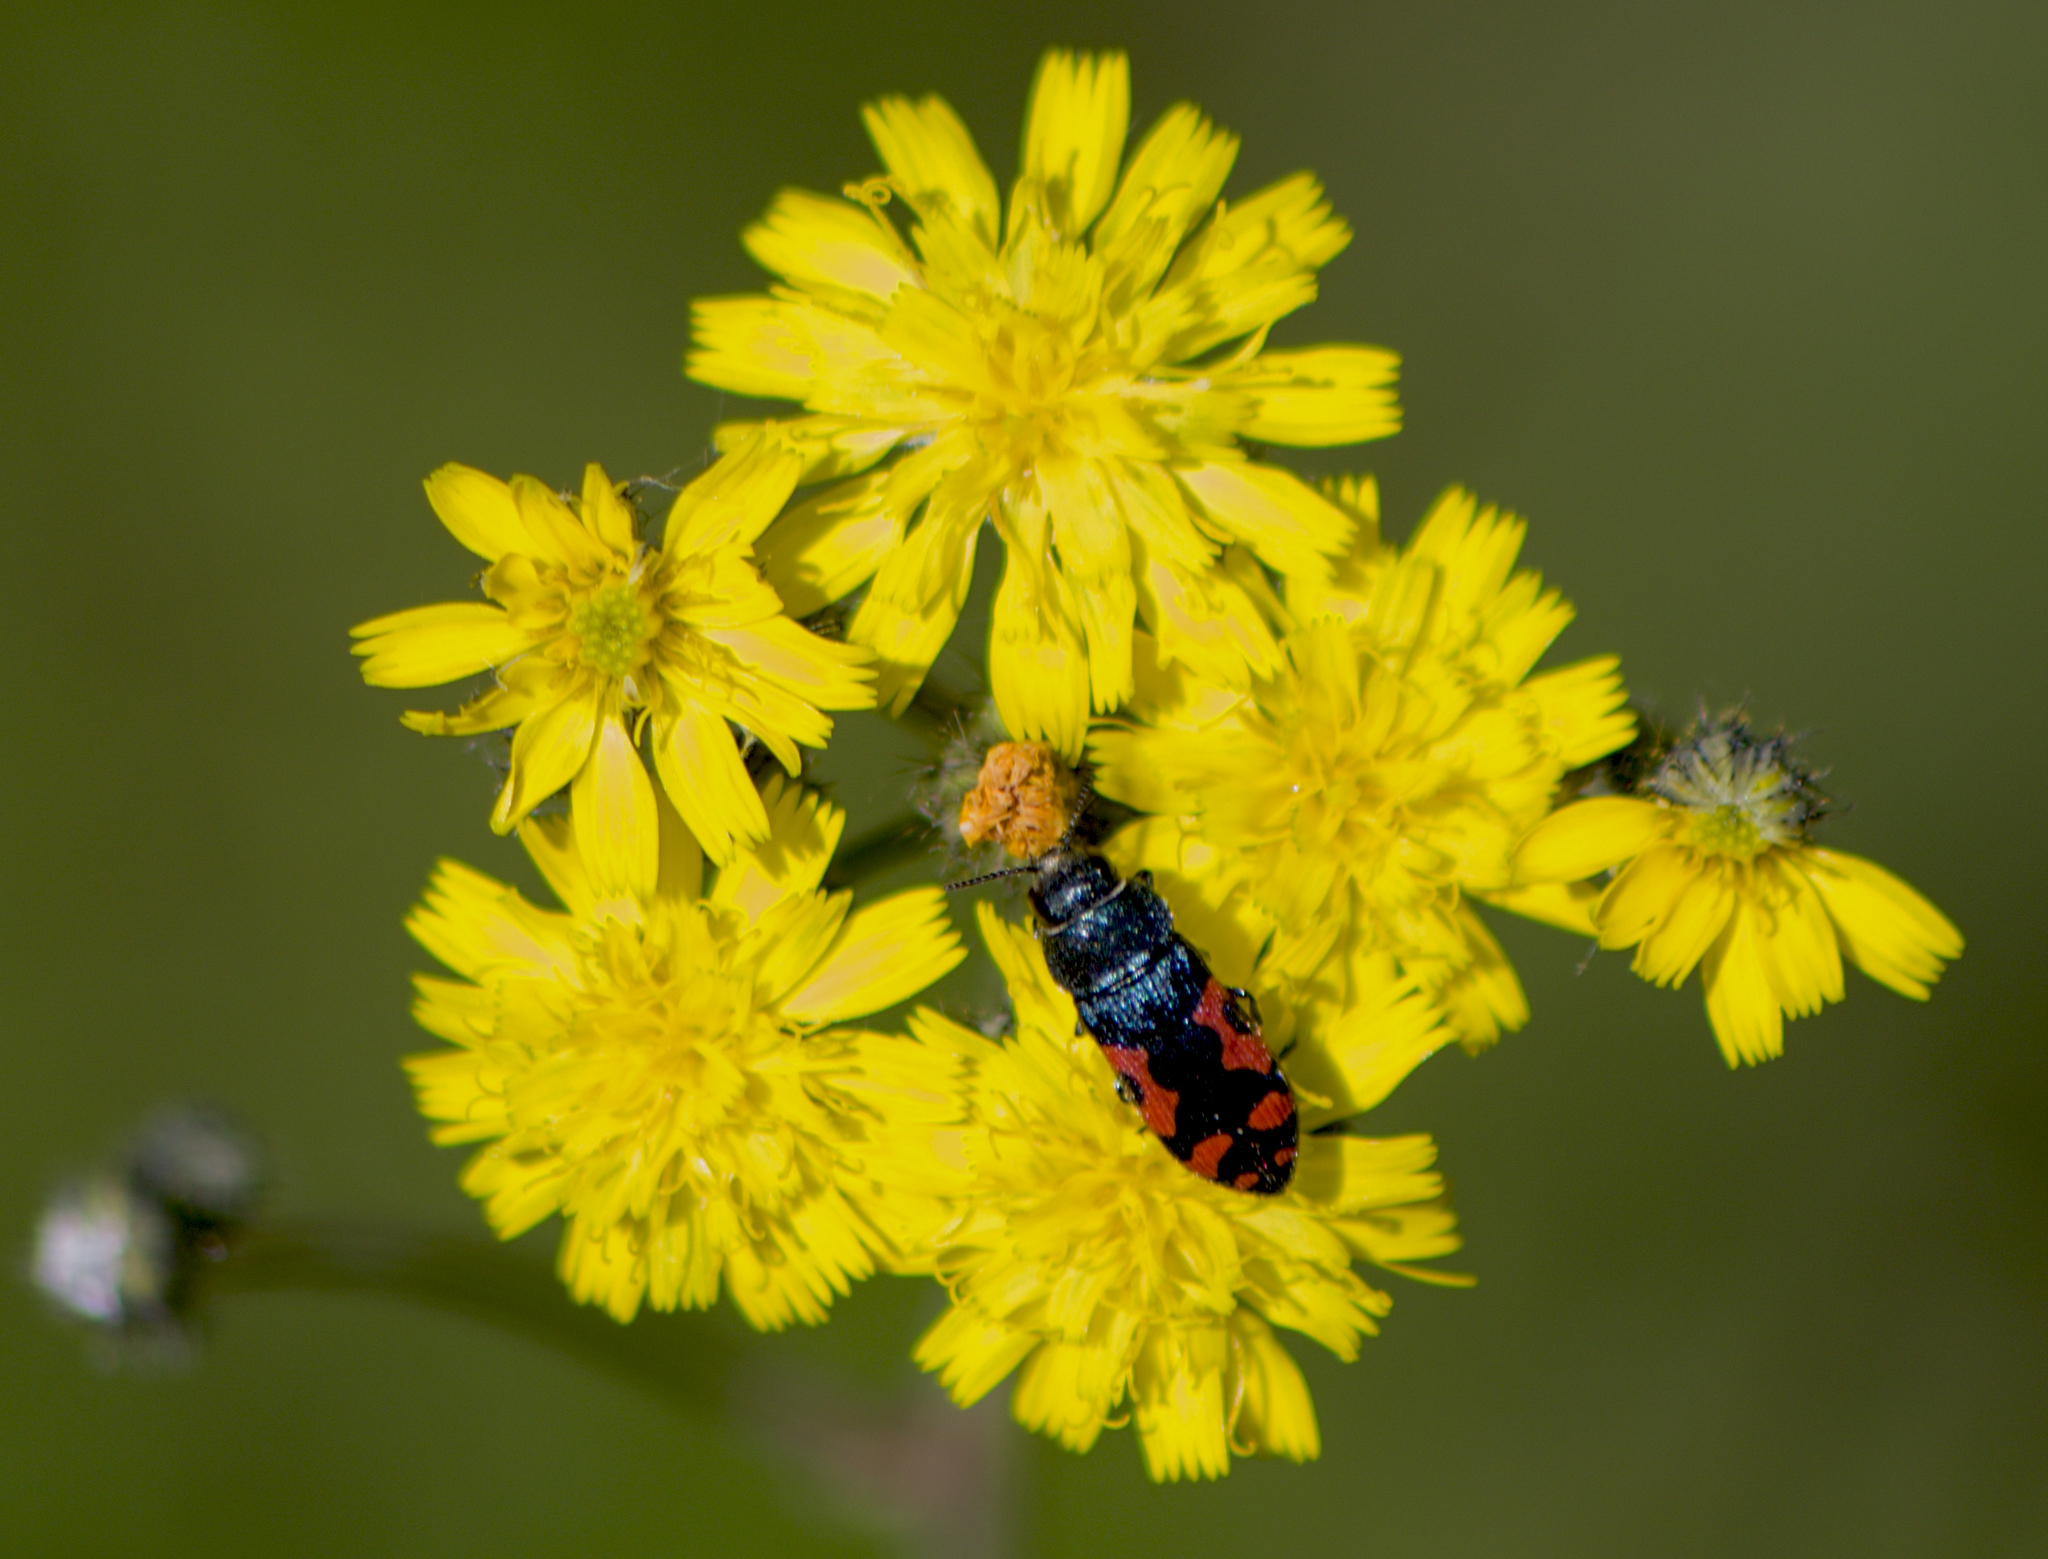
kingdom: Animalia
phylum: Arthropoda
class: Insecta
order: Coleoptera
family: Buprestidae
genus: Acmaeodera
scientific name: Acmaeodera ottomana
